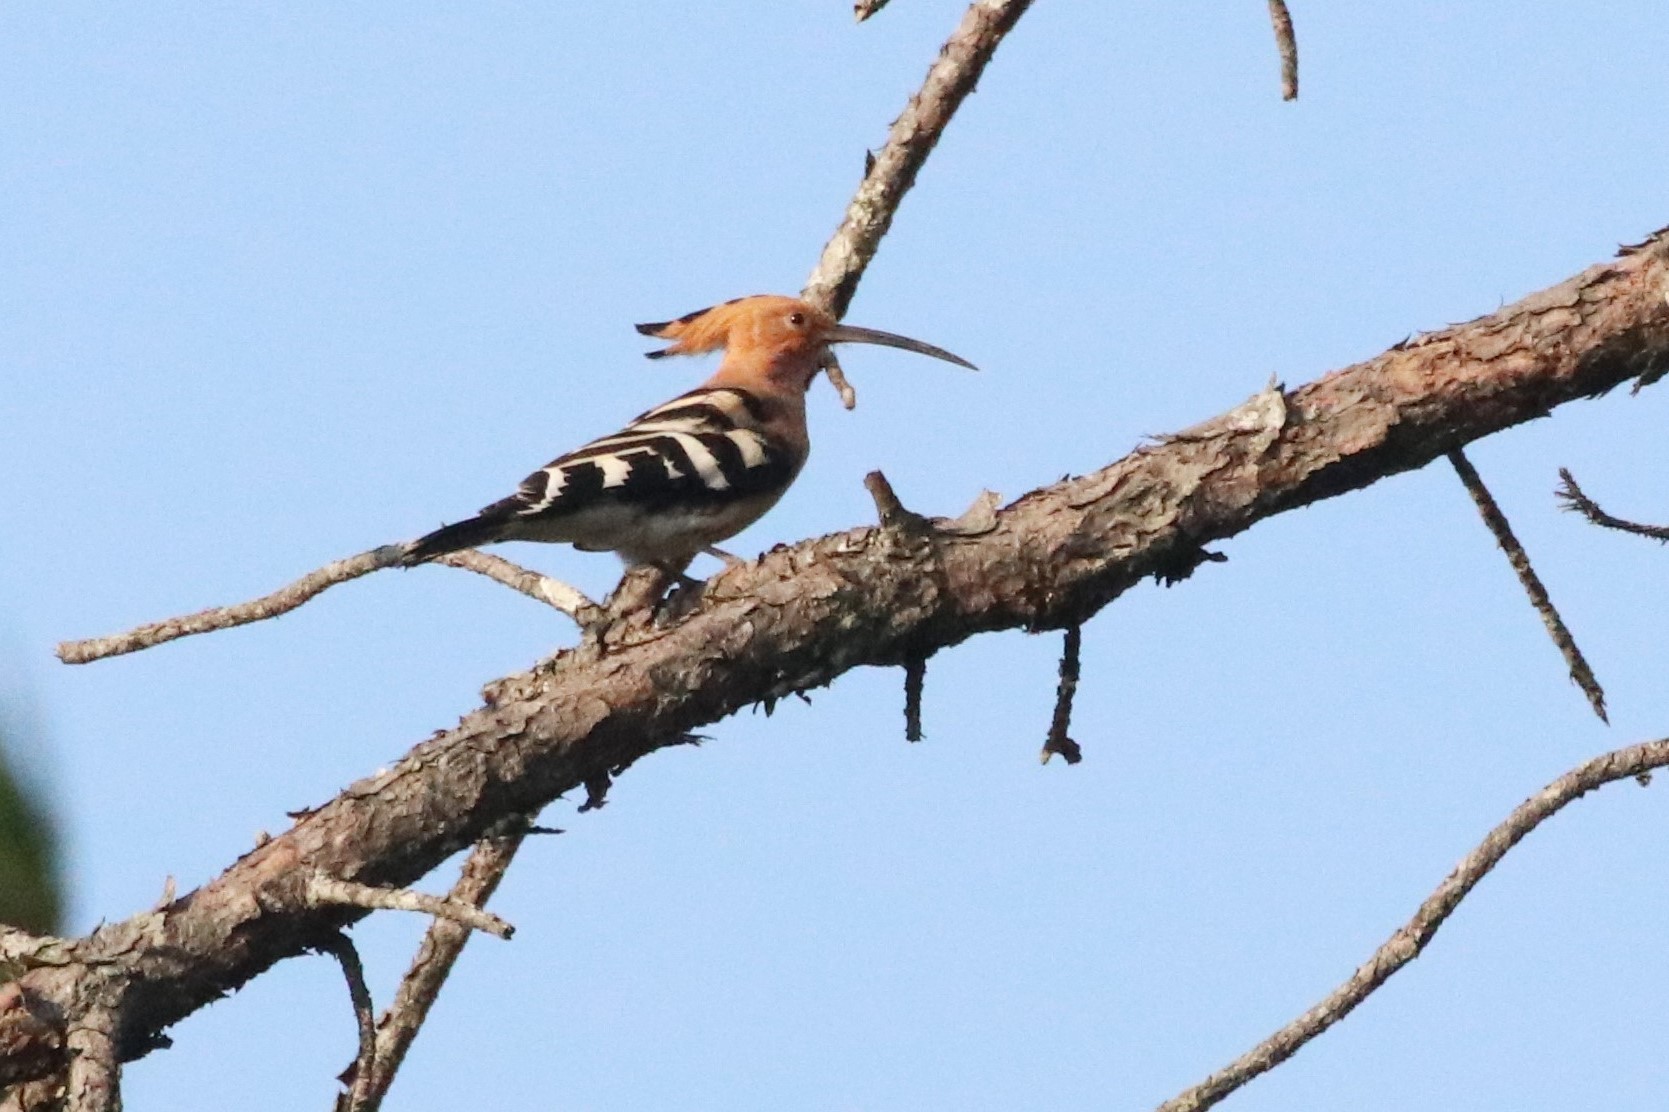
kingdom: Animalia
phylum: Chordata
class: Aves
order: Bucerotiformes
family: Upupidae
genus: Upupa
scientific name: Upupa epops
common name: Eurasian hoopoe
